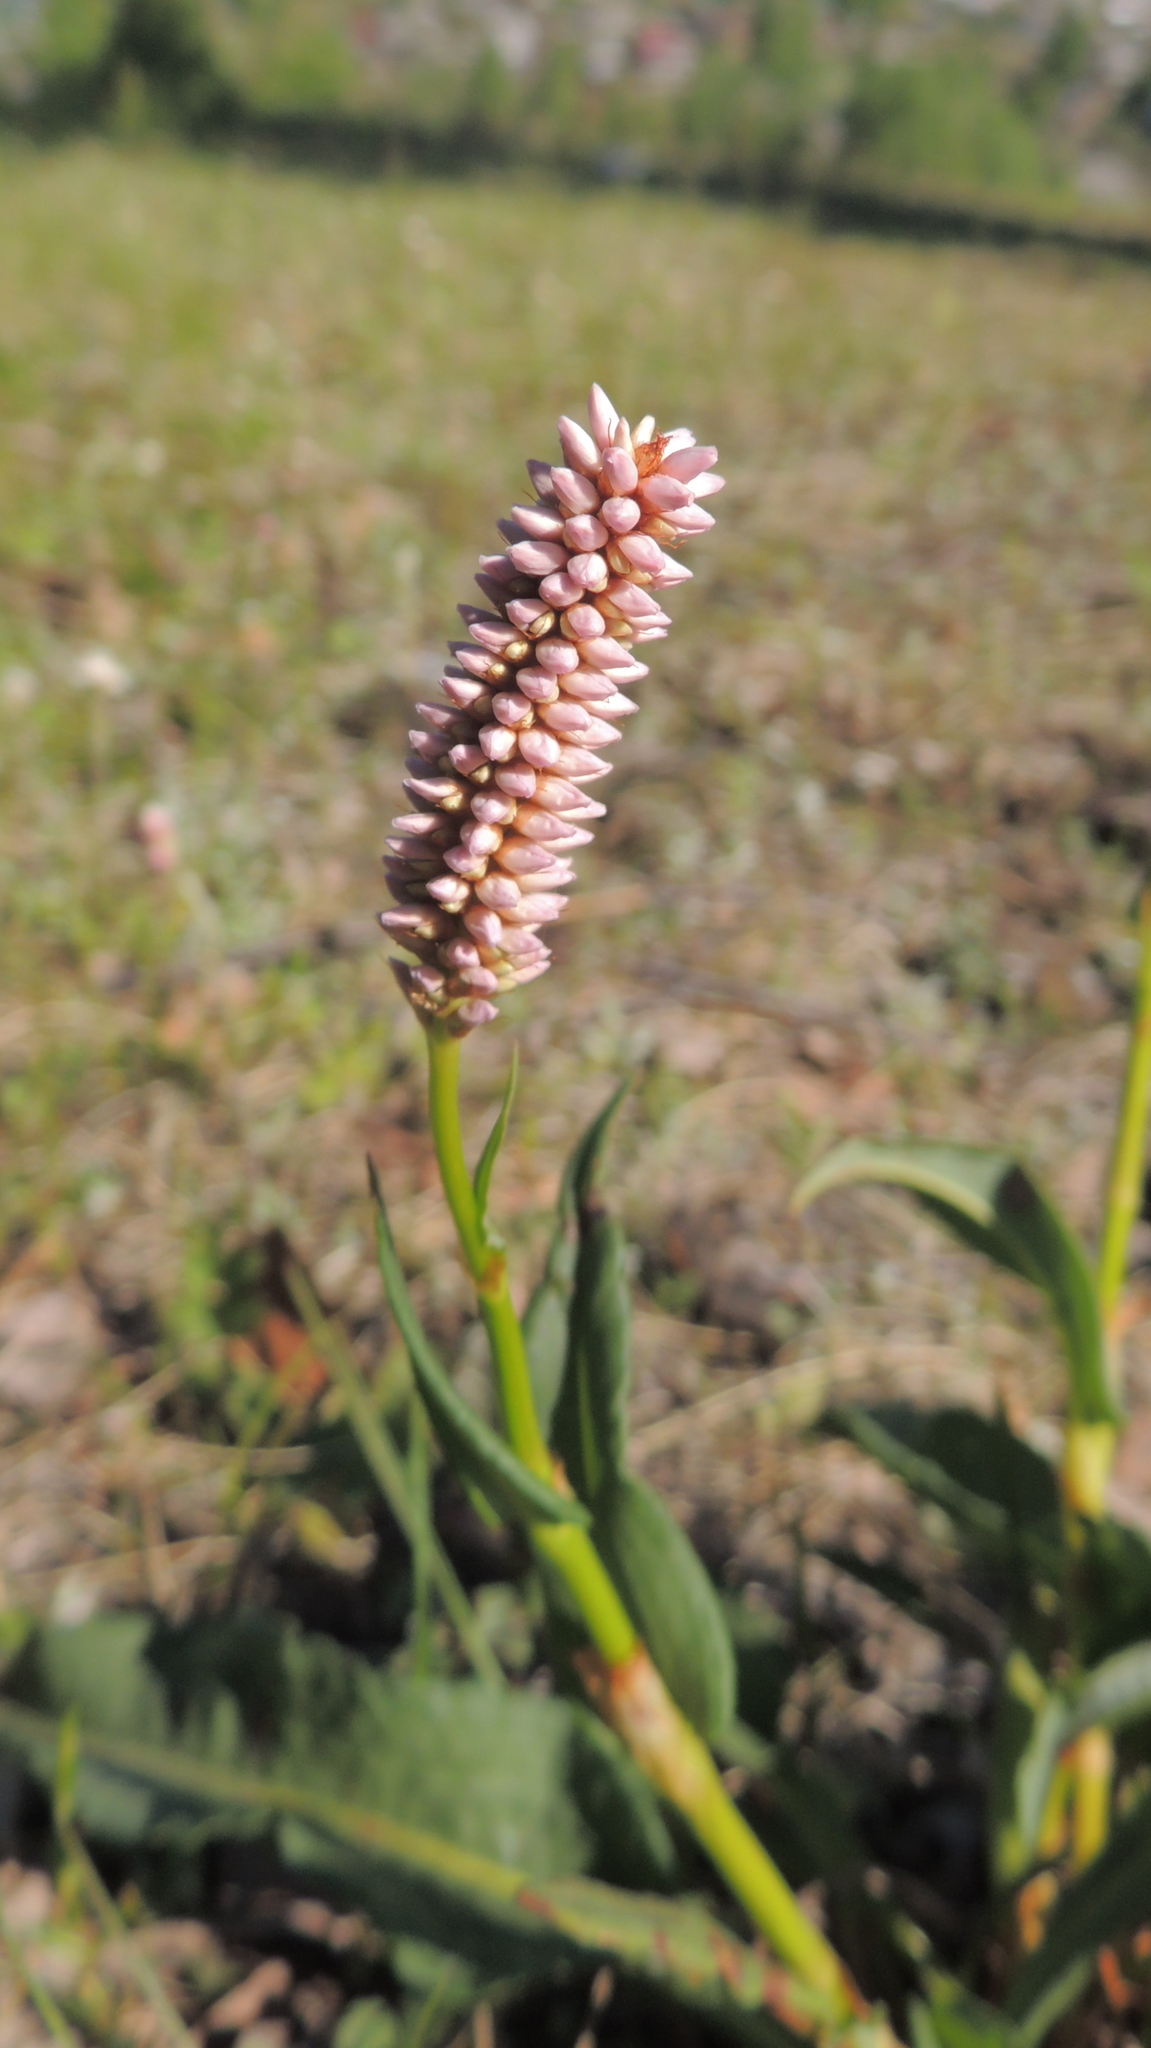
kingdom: Plantae
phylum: Tracheophyta
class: Magnoliopsida
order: Caryophyllales
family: Polygonaceae
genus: Bistorta
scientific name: Bistorta officinalis
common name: Common bistort
